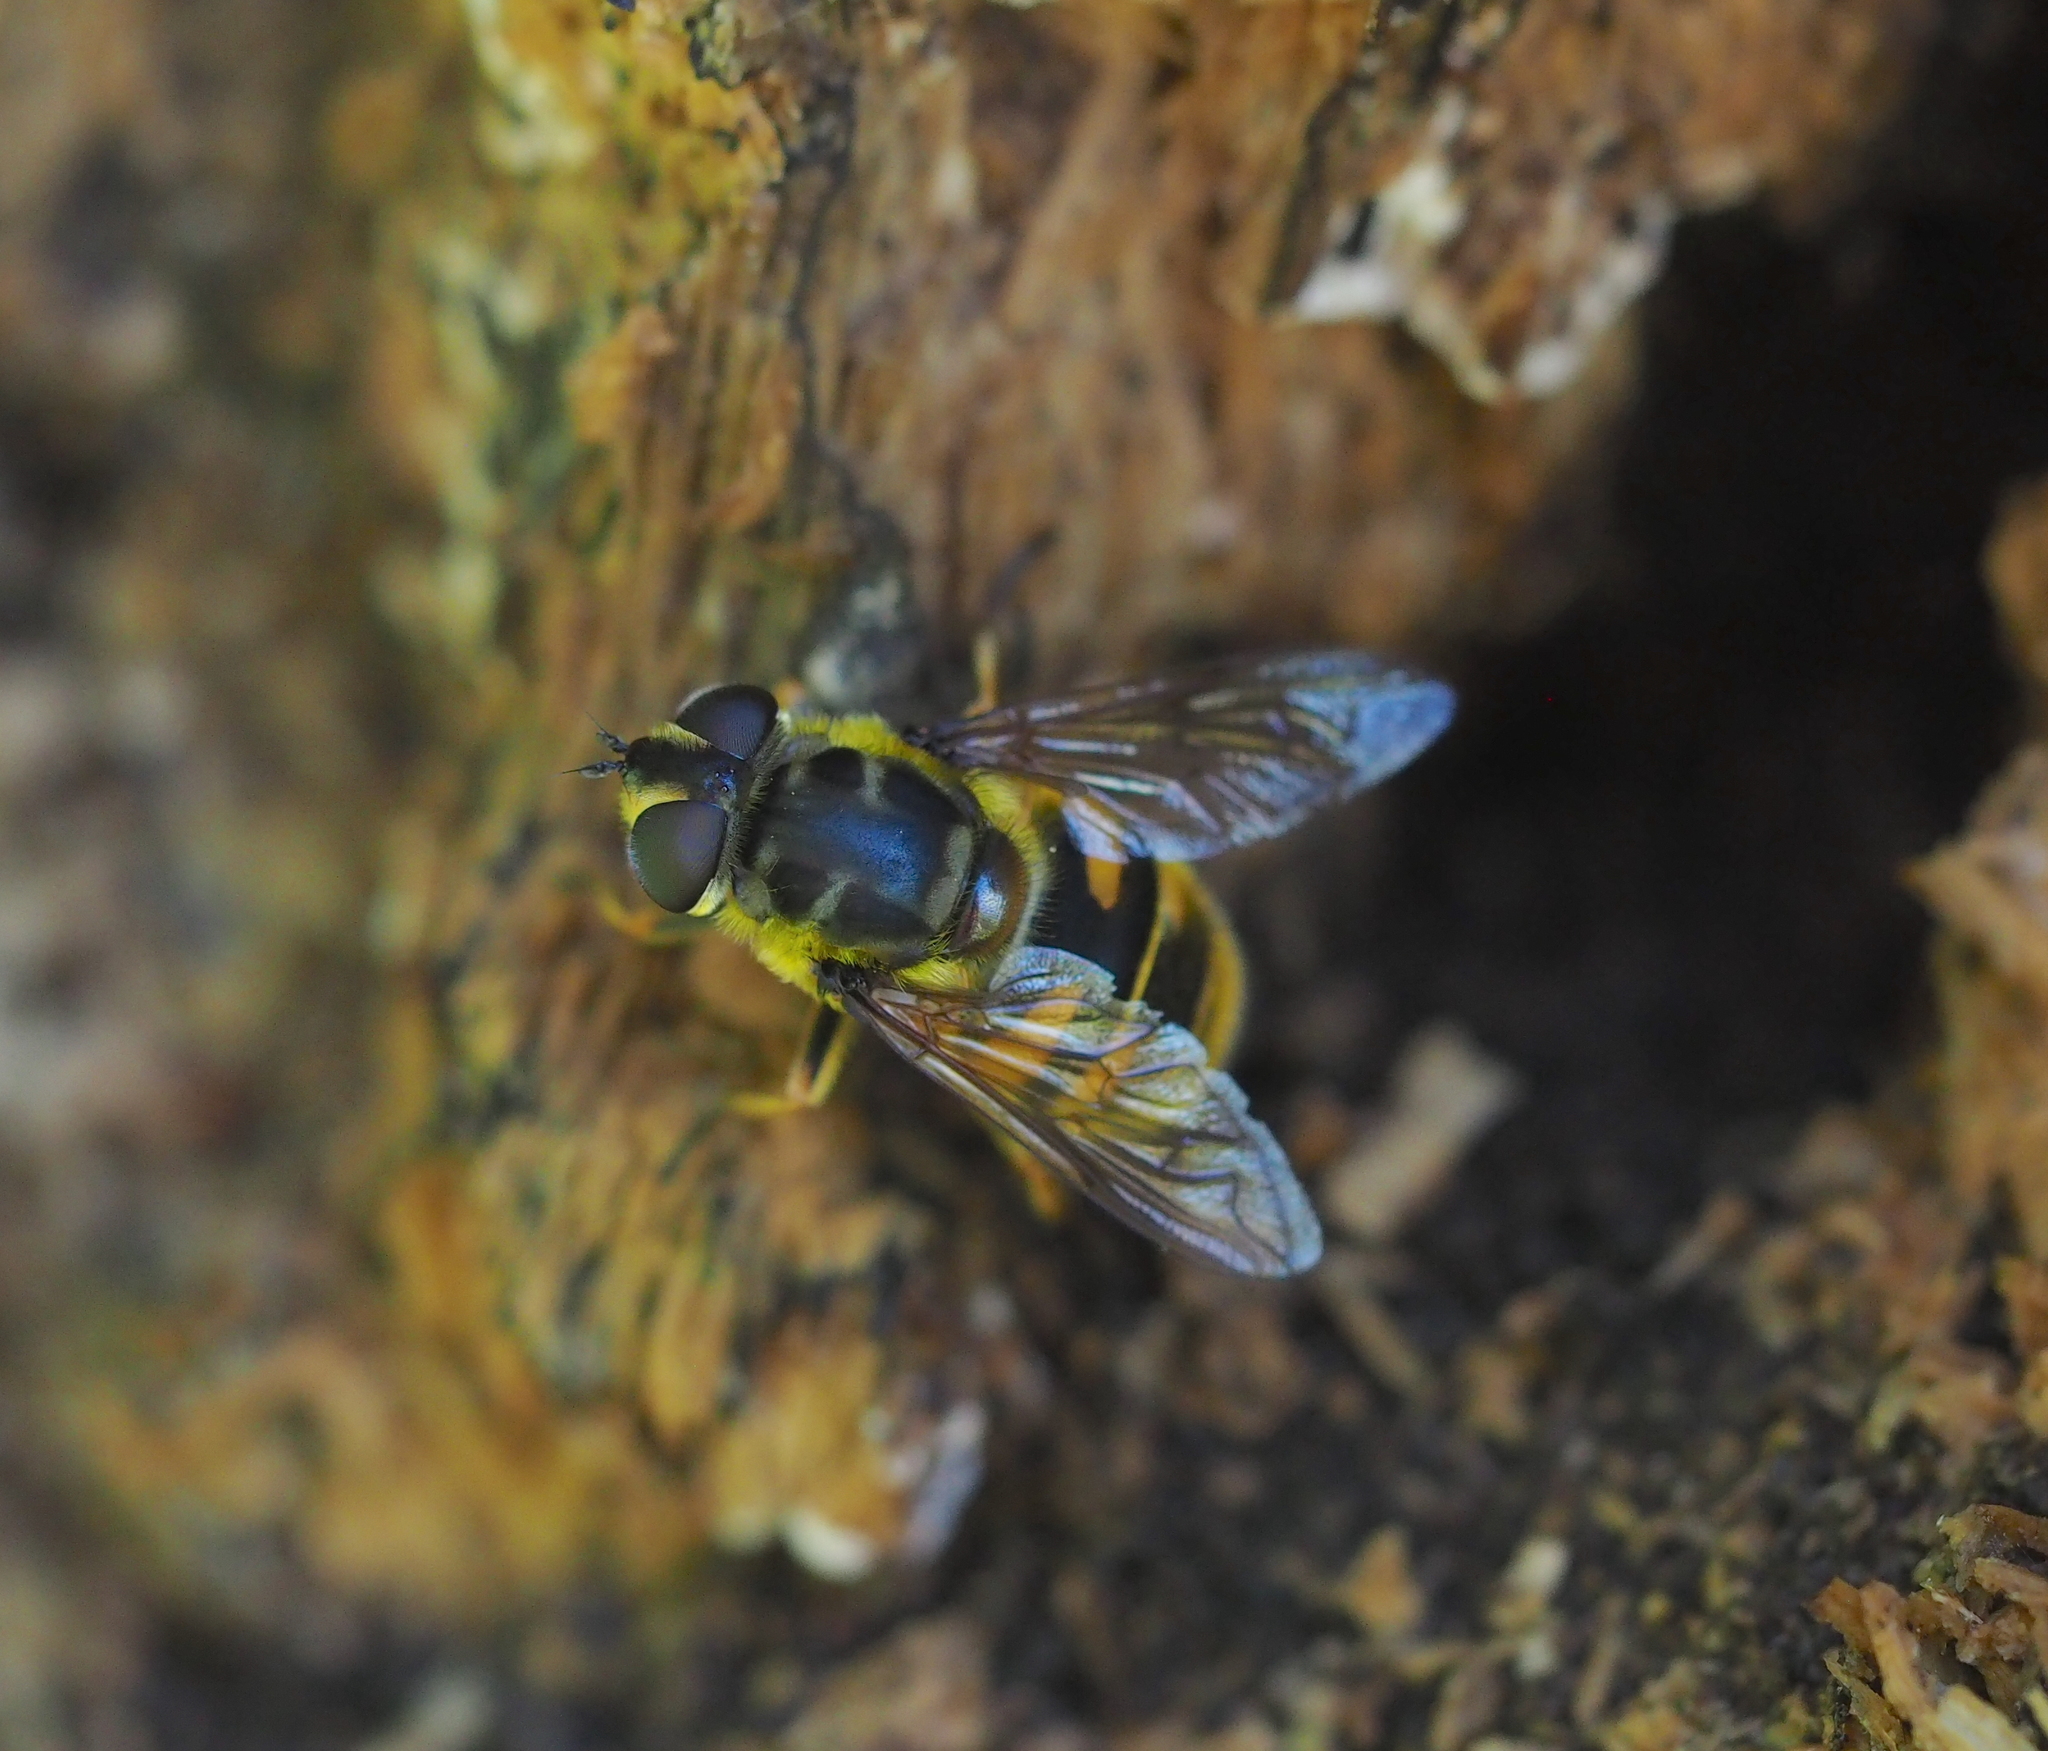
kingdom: Animalia
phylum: Arthropoda
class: Insecta
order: Diptera
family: Syrphidae
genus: Myathropa
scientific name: Myathropa florea
